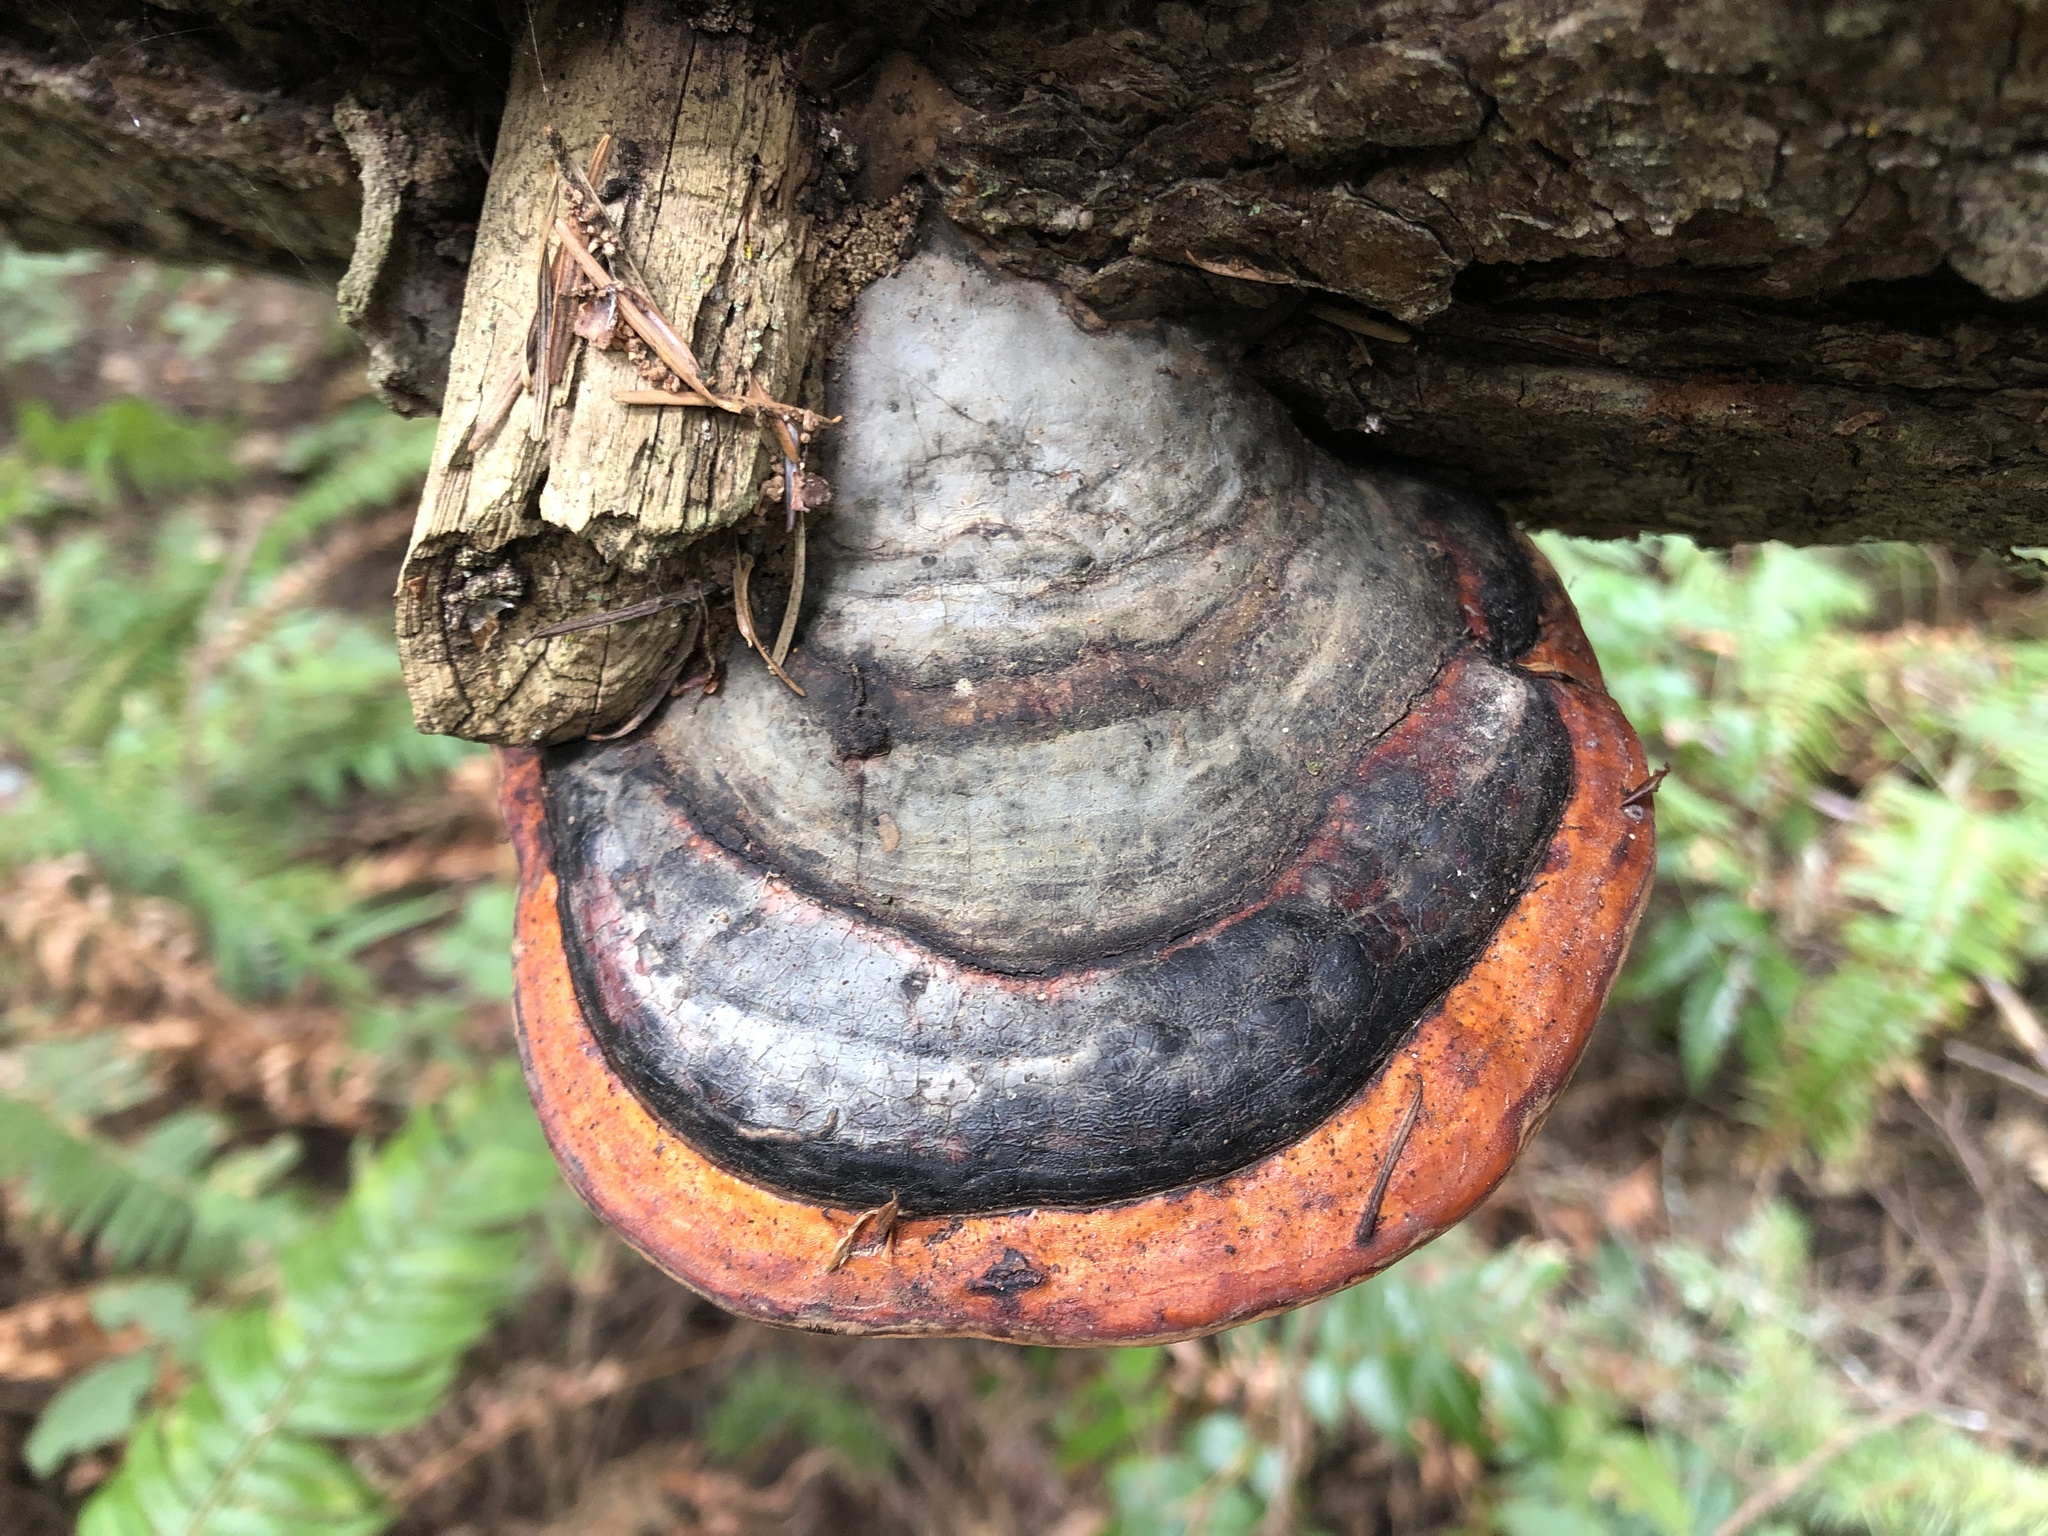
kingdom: Fungi
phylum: Basidiomycota
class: Agaricomycetes
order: Polyporales
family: Fomitopsidaceae
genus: Fomitopsis
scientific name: Fomitopsis mounceae
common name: Northern red belt
